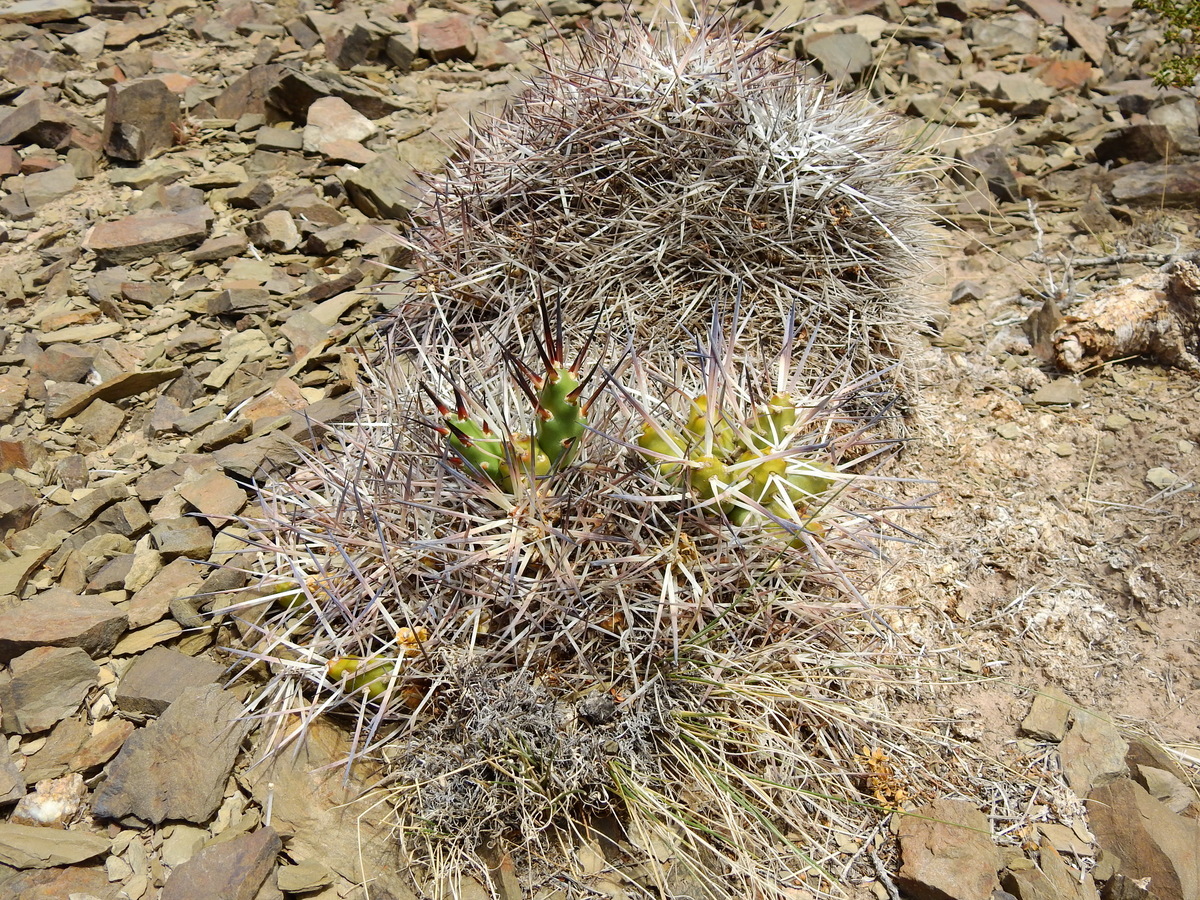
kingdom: Plantae
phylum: Tracheophyta
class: Magnoliopsida
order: Caryophyllales
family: Cactaceae
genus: Maihueniopsis
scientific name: Maihueniopsis glomerata
